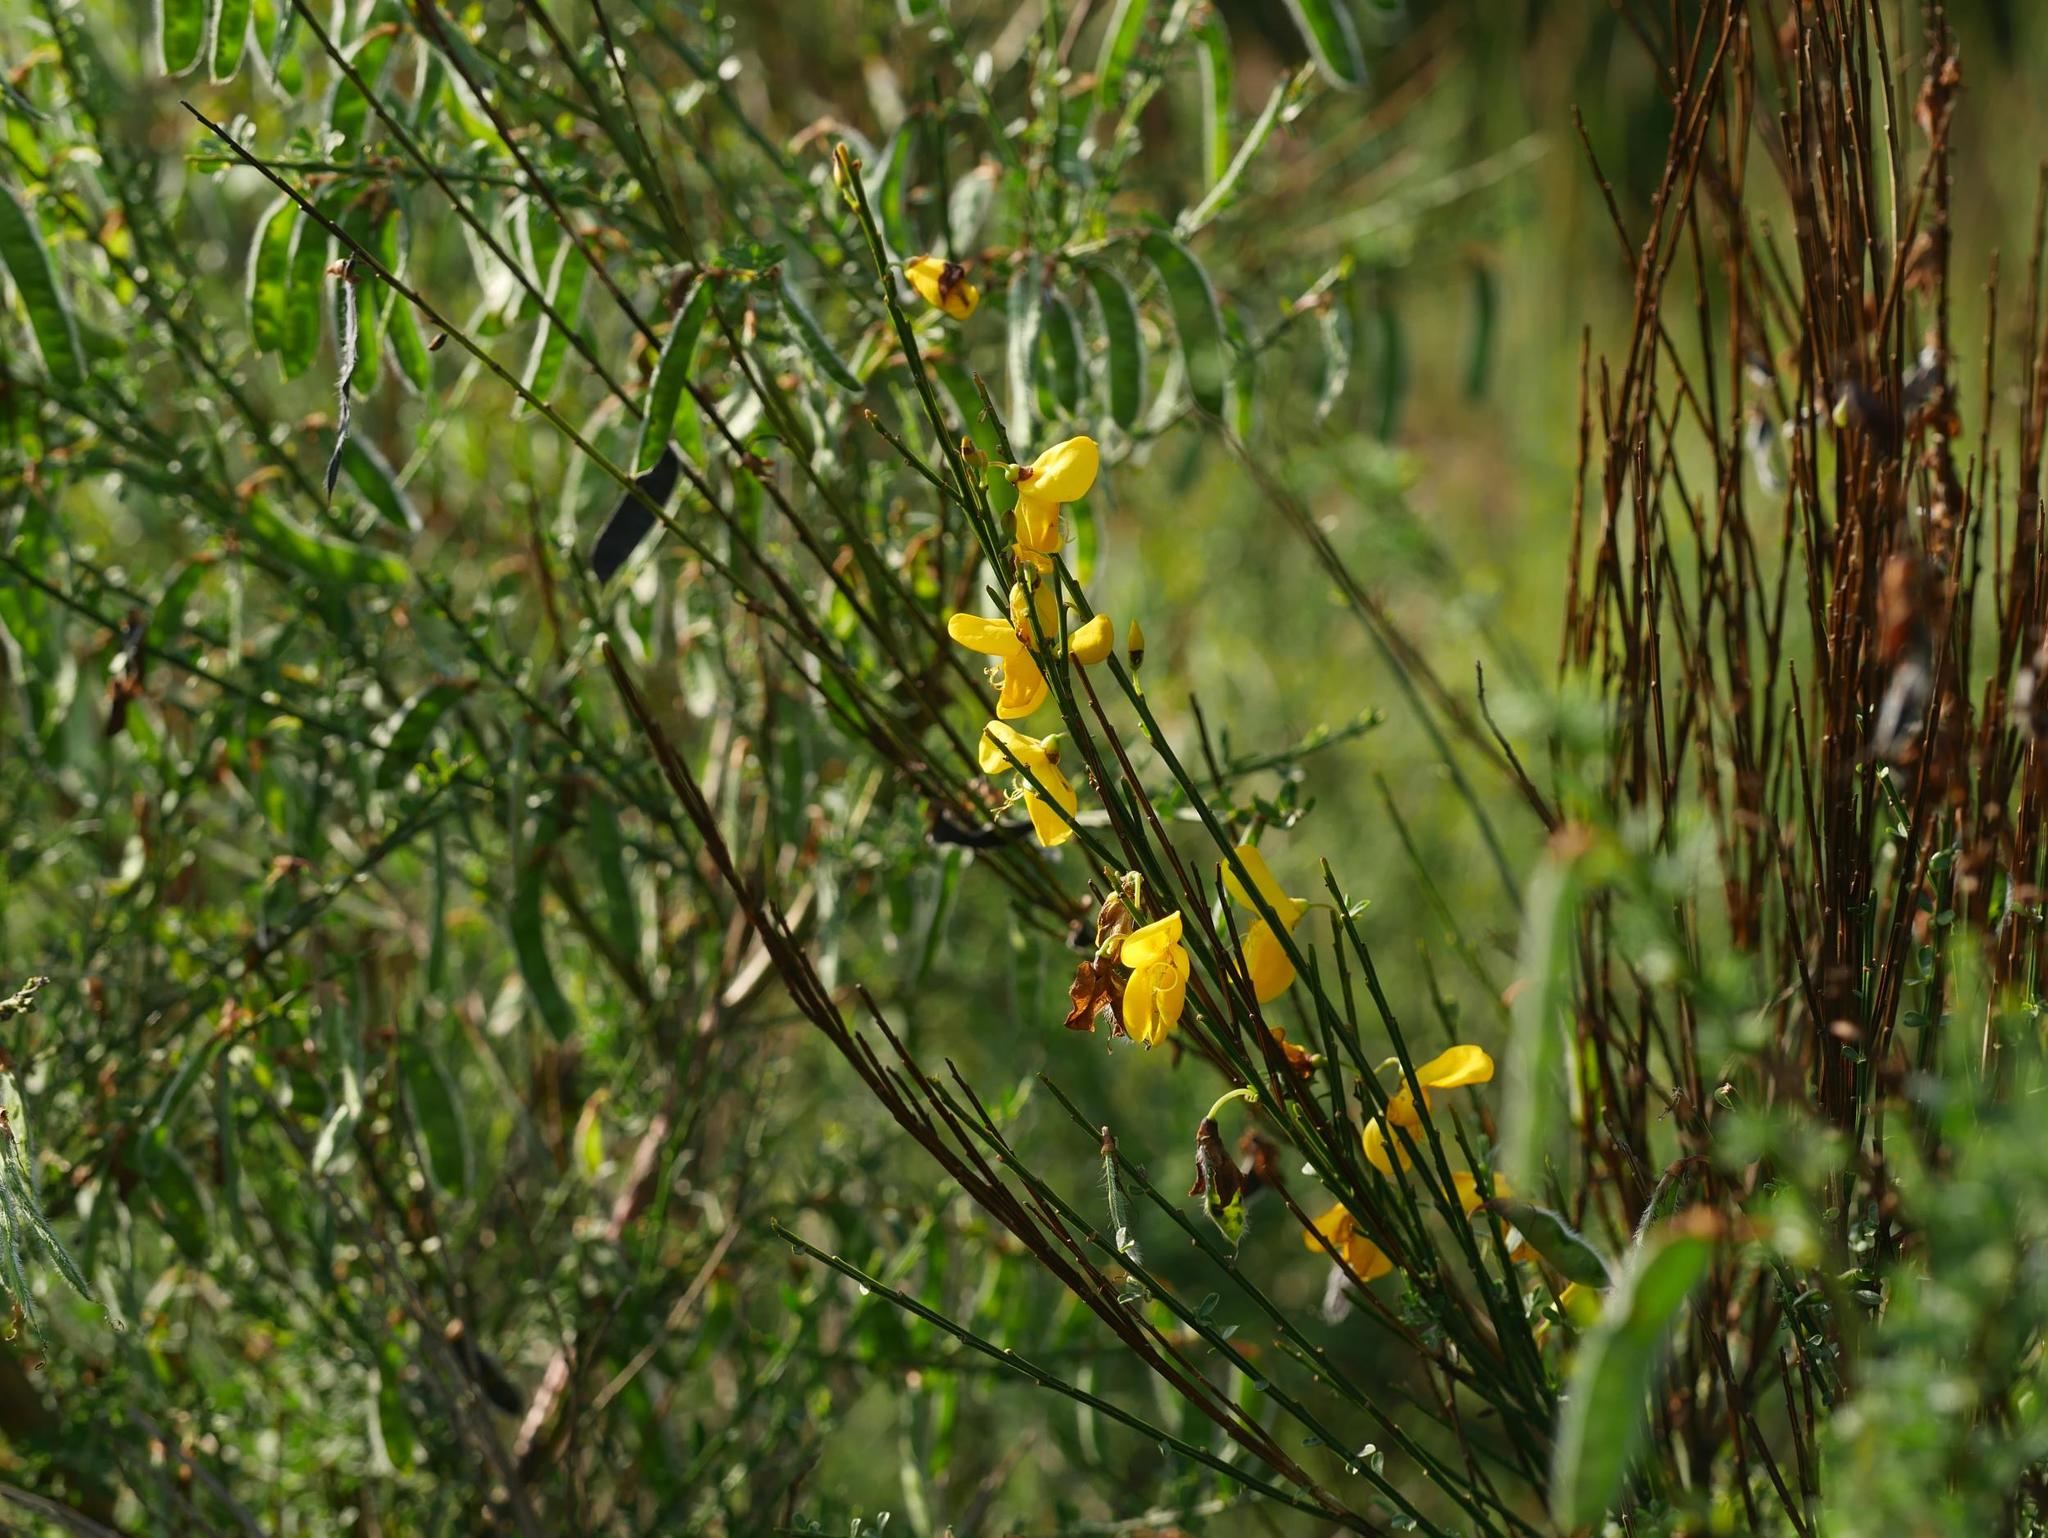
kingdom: Plantae
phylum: Tracheophyta
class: Magnoliopsida
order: Fabales
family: Fabaceae
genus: Cytisus
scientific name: Cytisus scoparius
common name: Scotch broom
